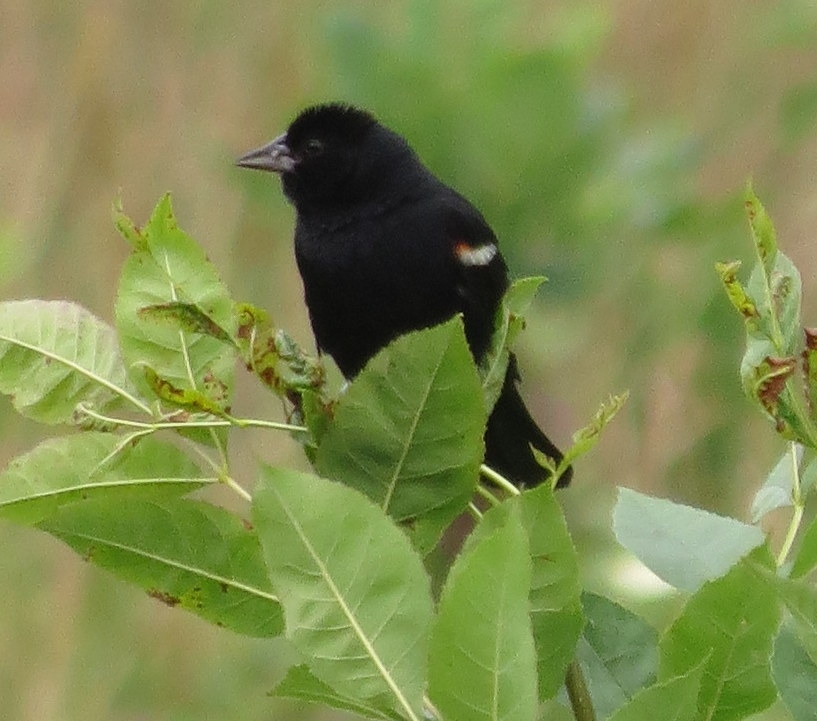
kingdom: Animalia
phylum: Chordata
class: Aves
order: Passeriformes
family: Icteridae
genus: Agelaius
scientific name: Agelaius phoeniceus
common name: Red-winged blackbird
